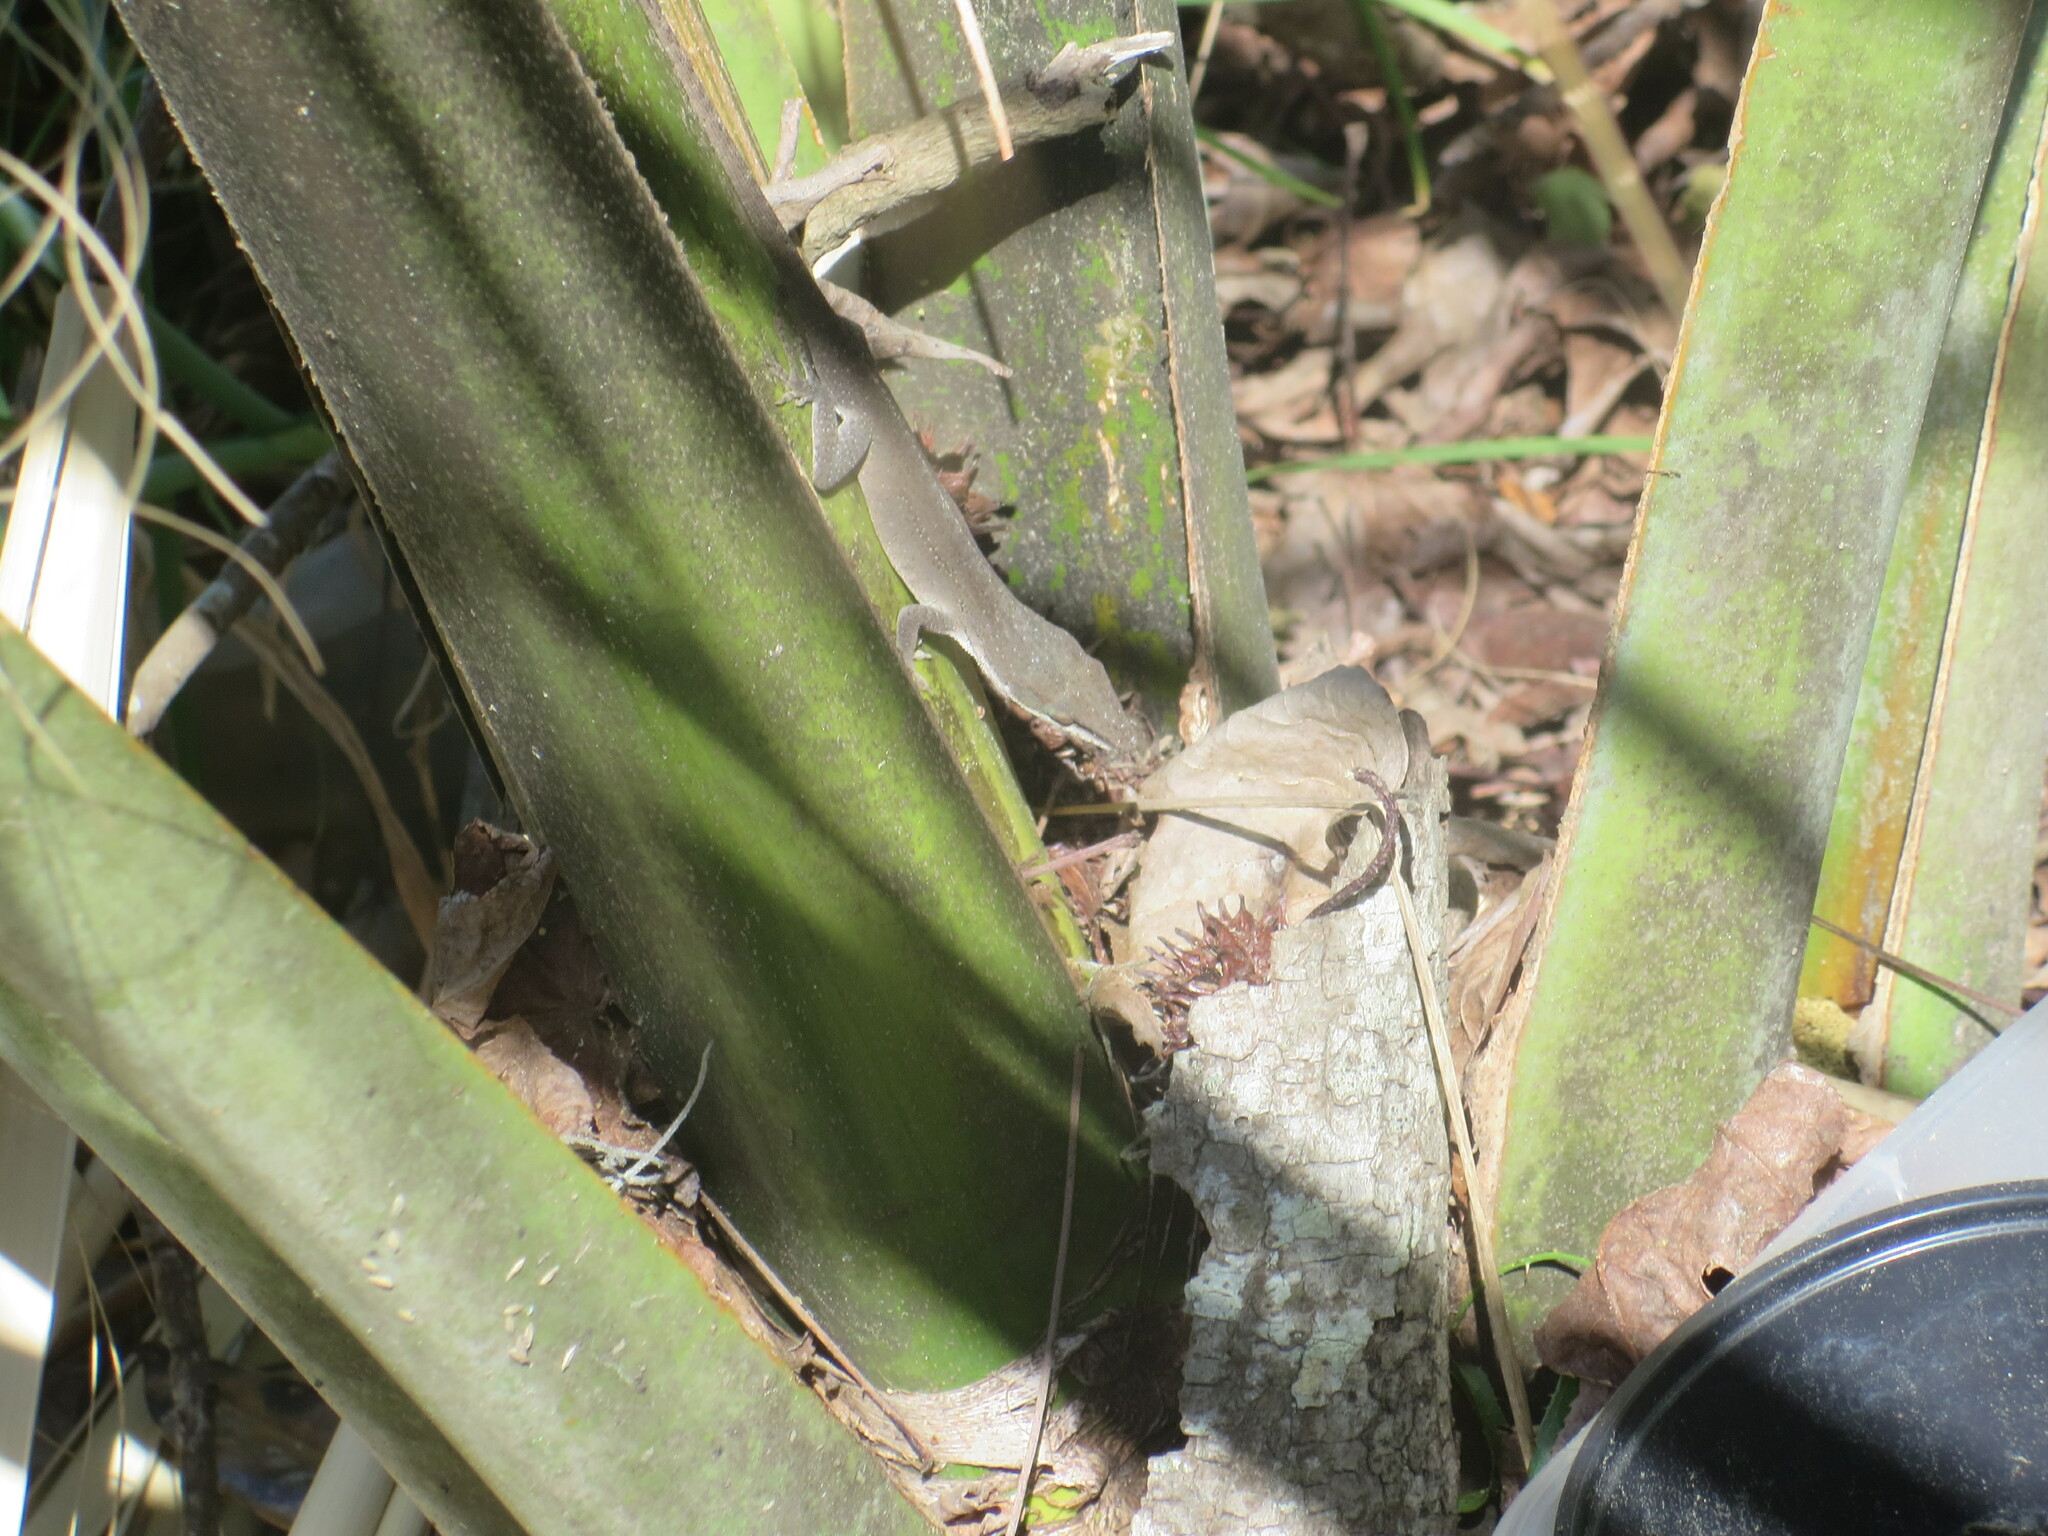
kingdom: Animalia
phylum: Chordata
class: Squamata
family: Dactyloidae
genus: Anolis
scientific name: Anolis carolinensis
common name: Green anole
